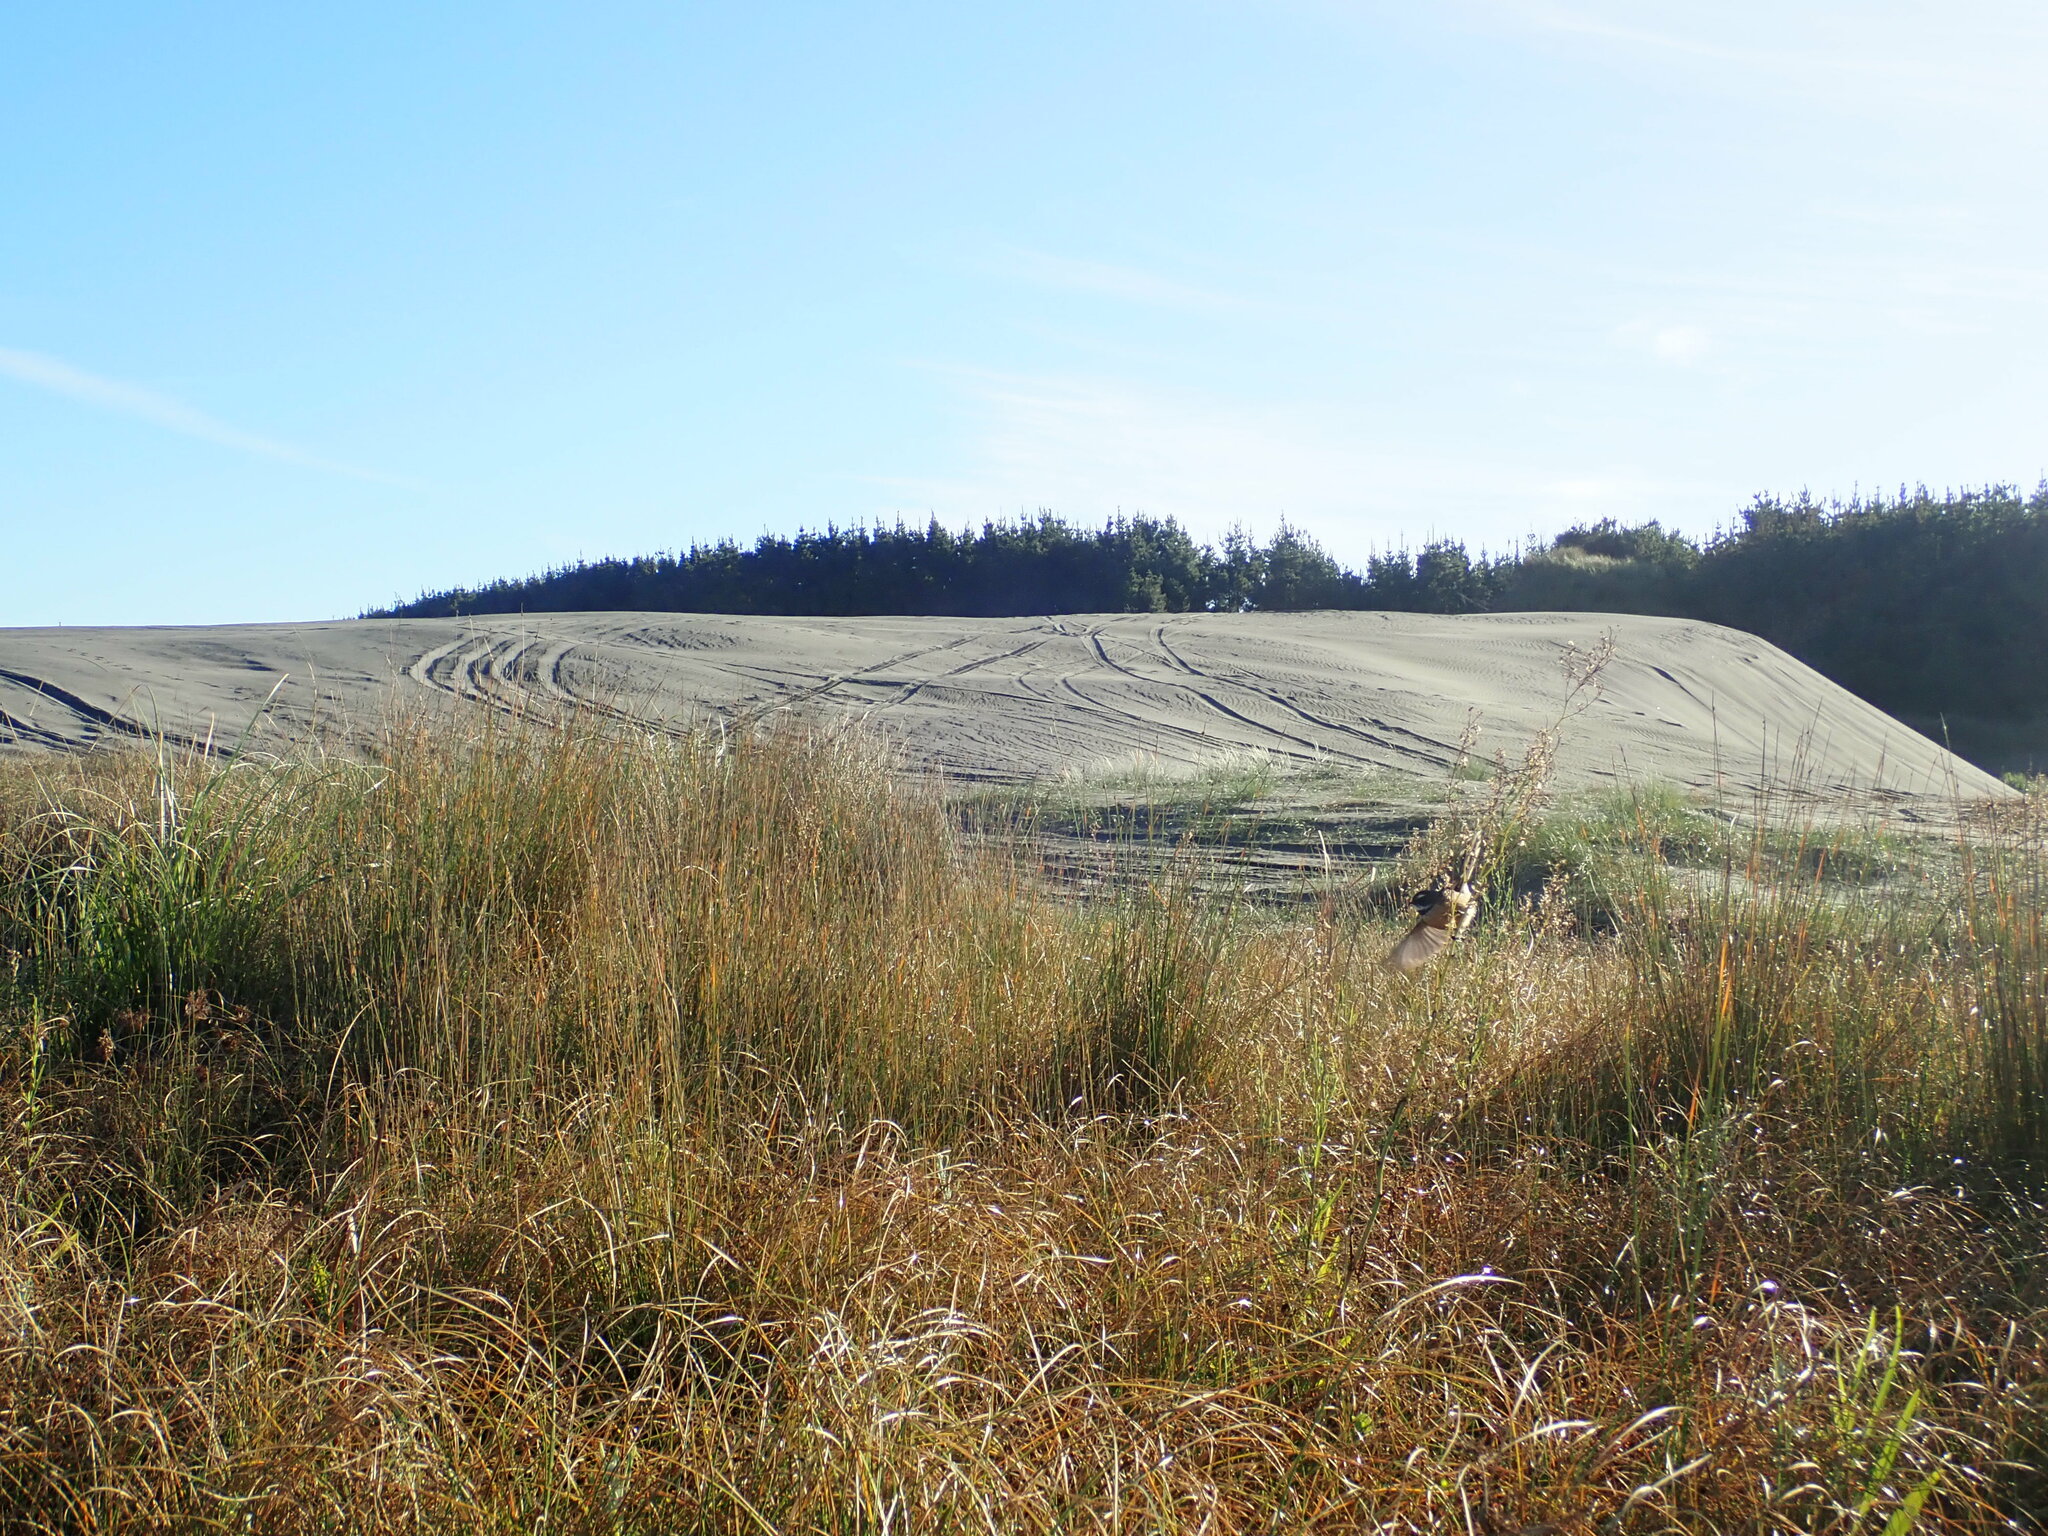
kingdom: Animalia
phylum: Chordata
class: Aves
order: Passeriformes
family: Rhipiduridae
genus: Rhipidura
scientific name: Rhipidura fuliginosa
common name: New zealand fantail
